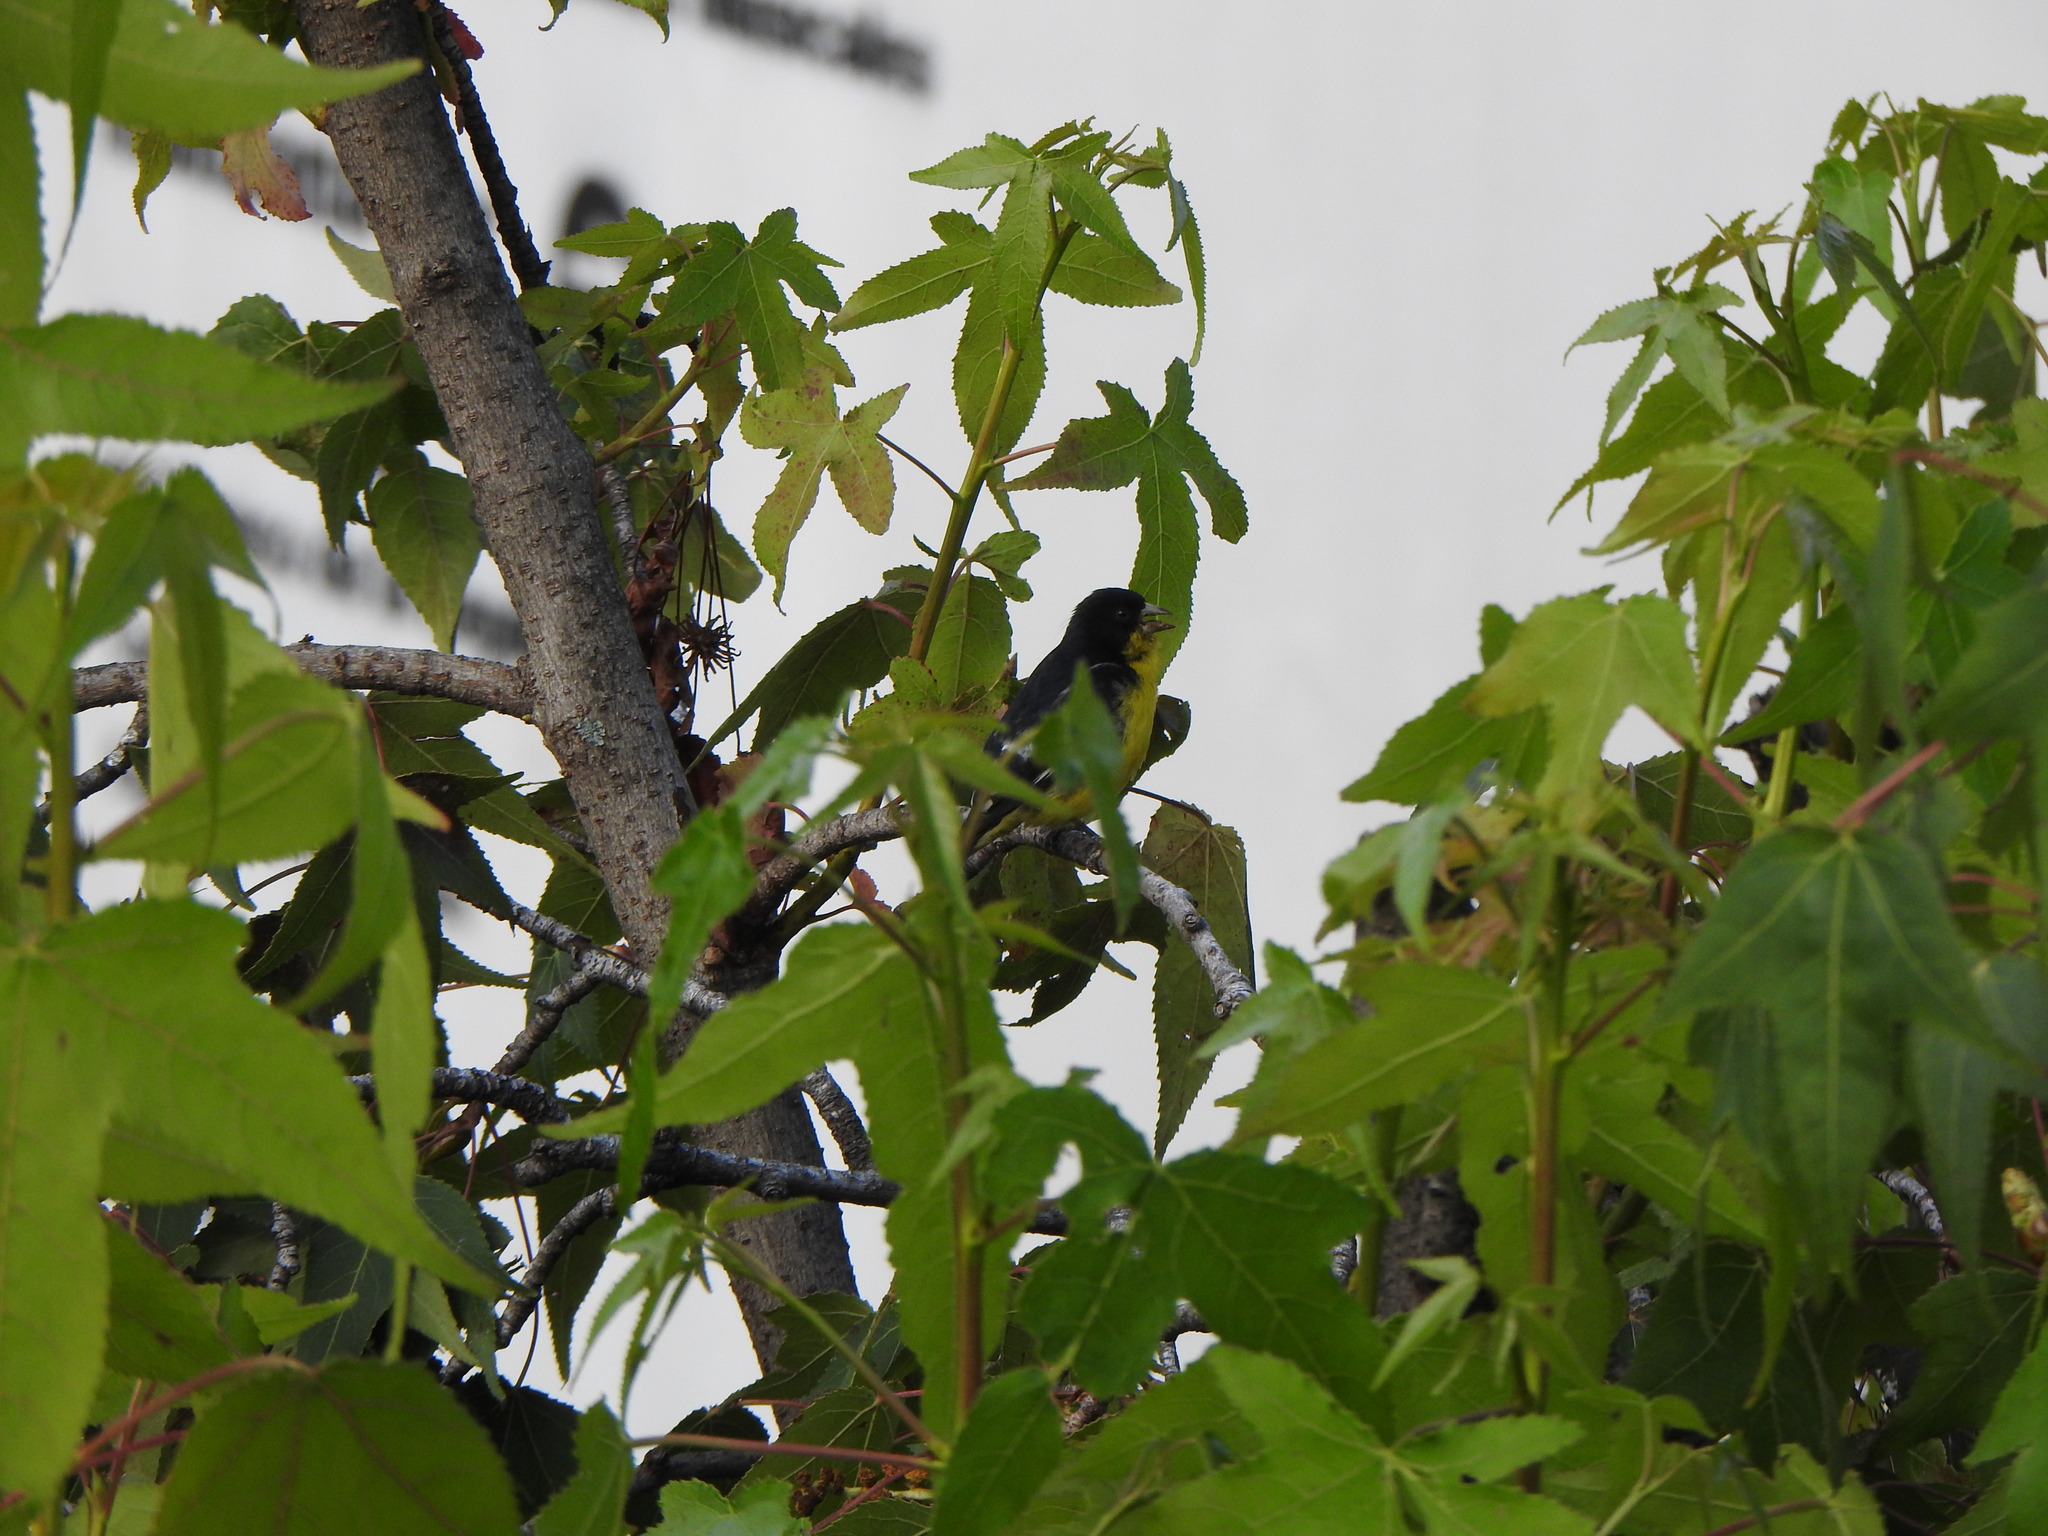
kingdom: Animalia
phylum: Chordata
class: Aves
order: Passeriformes
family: Fringillidae
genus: Spinus
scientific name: Spinus psaltria
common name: Lesser goldfinch
